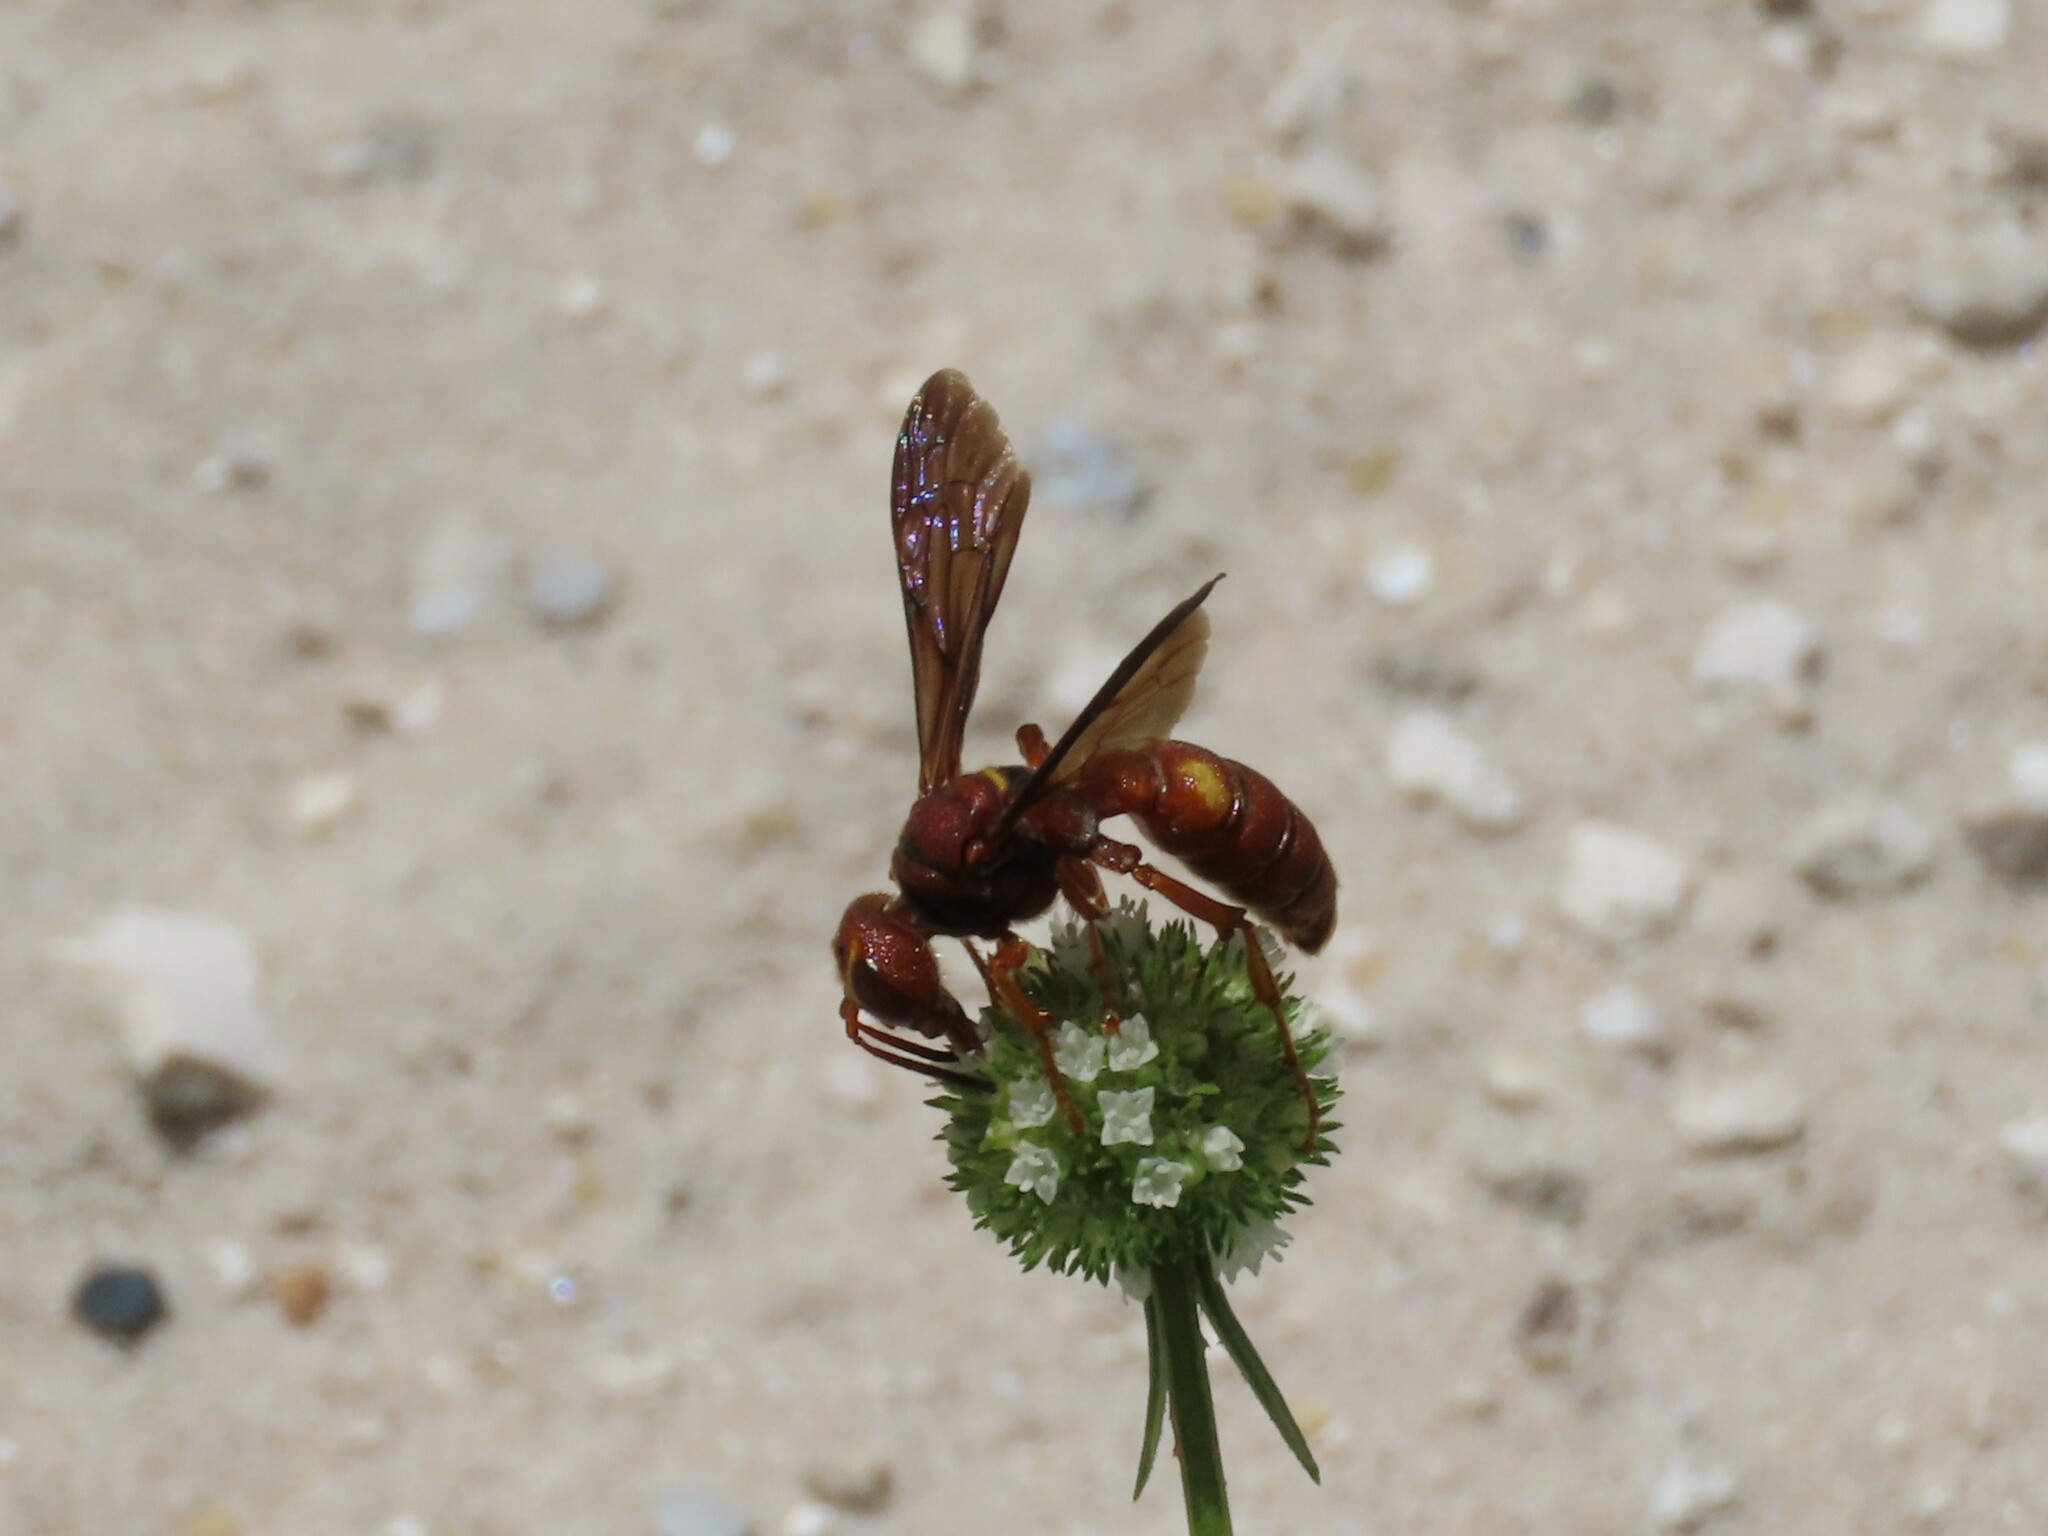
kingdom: Animalia
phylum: Arthropoda
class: Insecta
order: Hymenoptera
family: Crabronidae
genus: Cerceris
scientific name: Cerceris bicornuta
